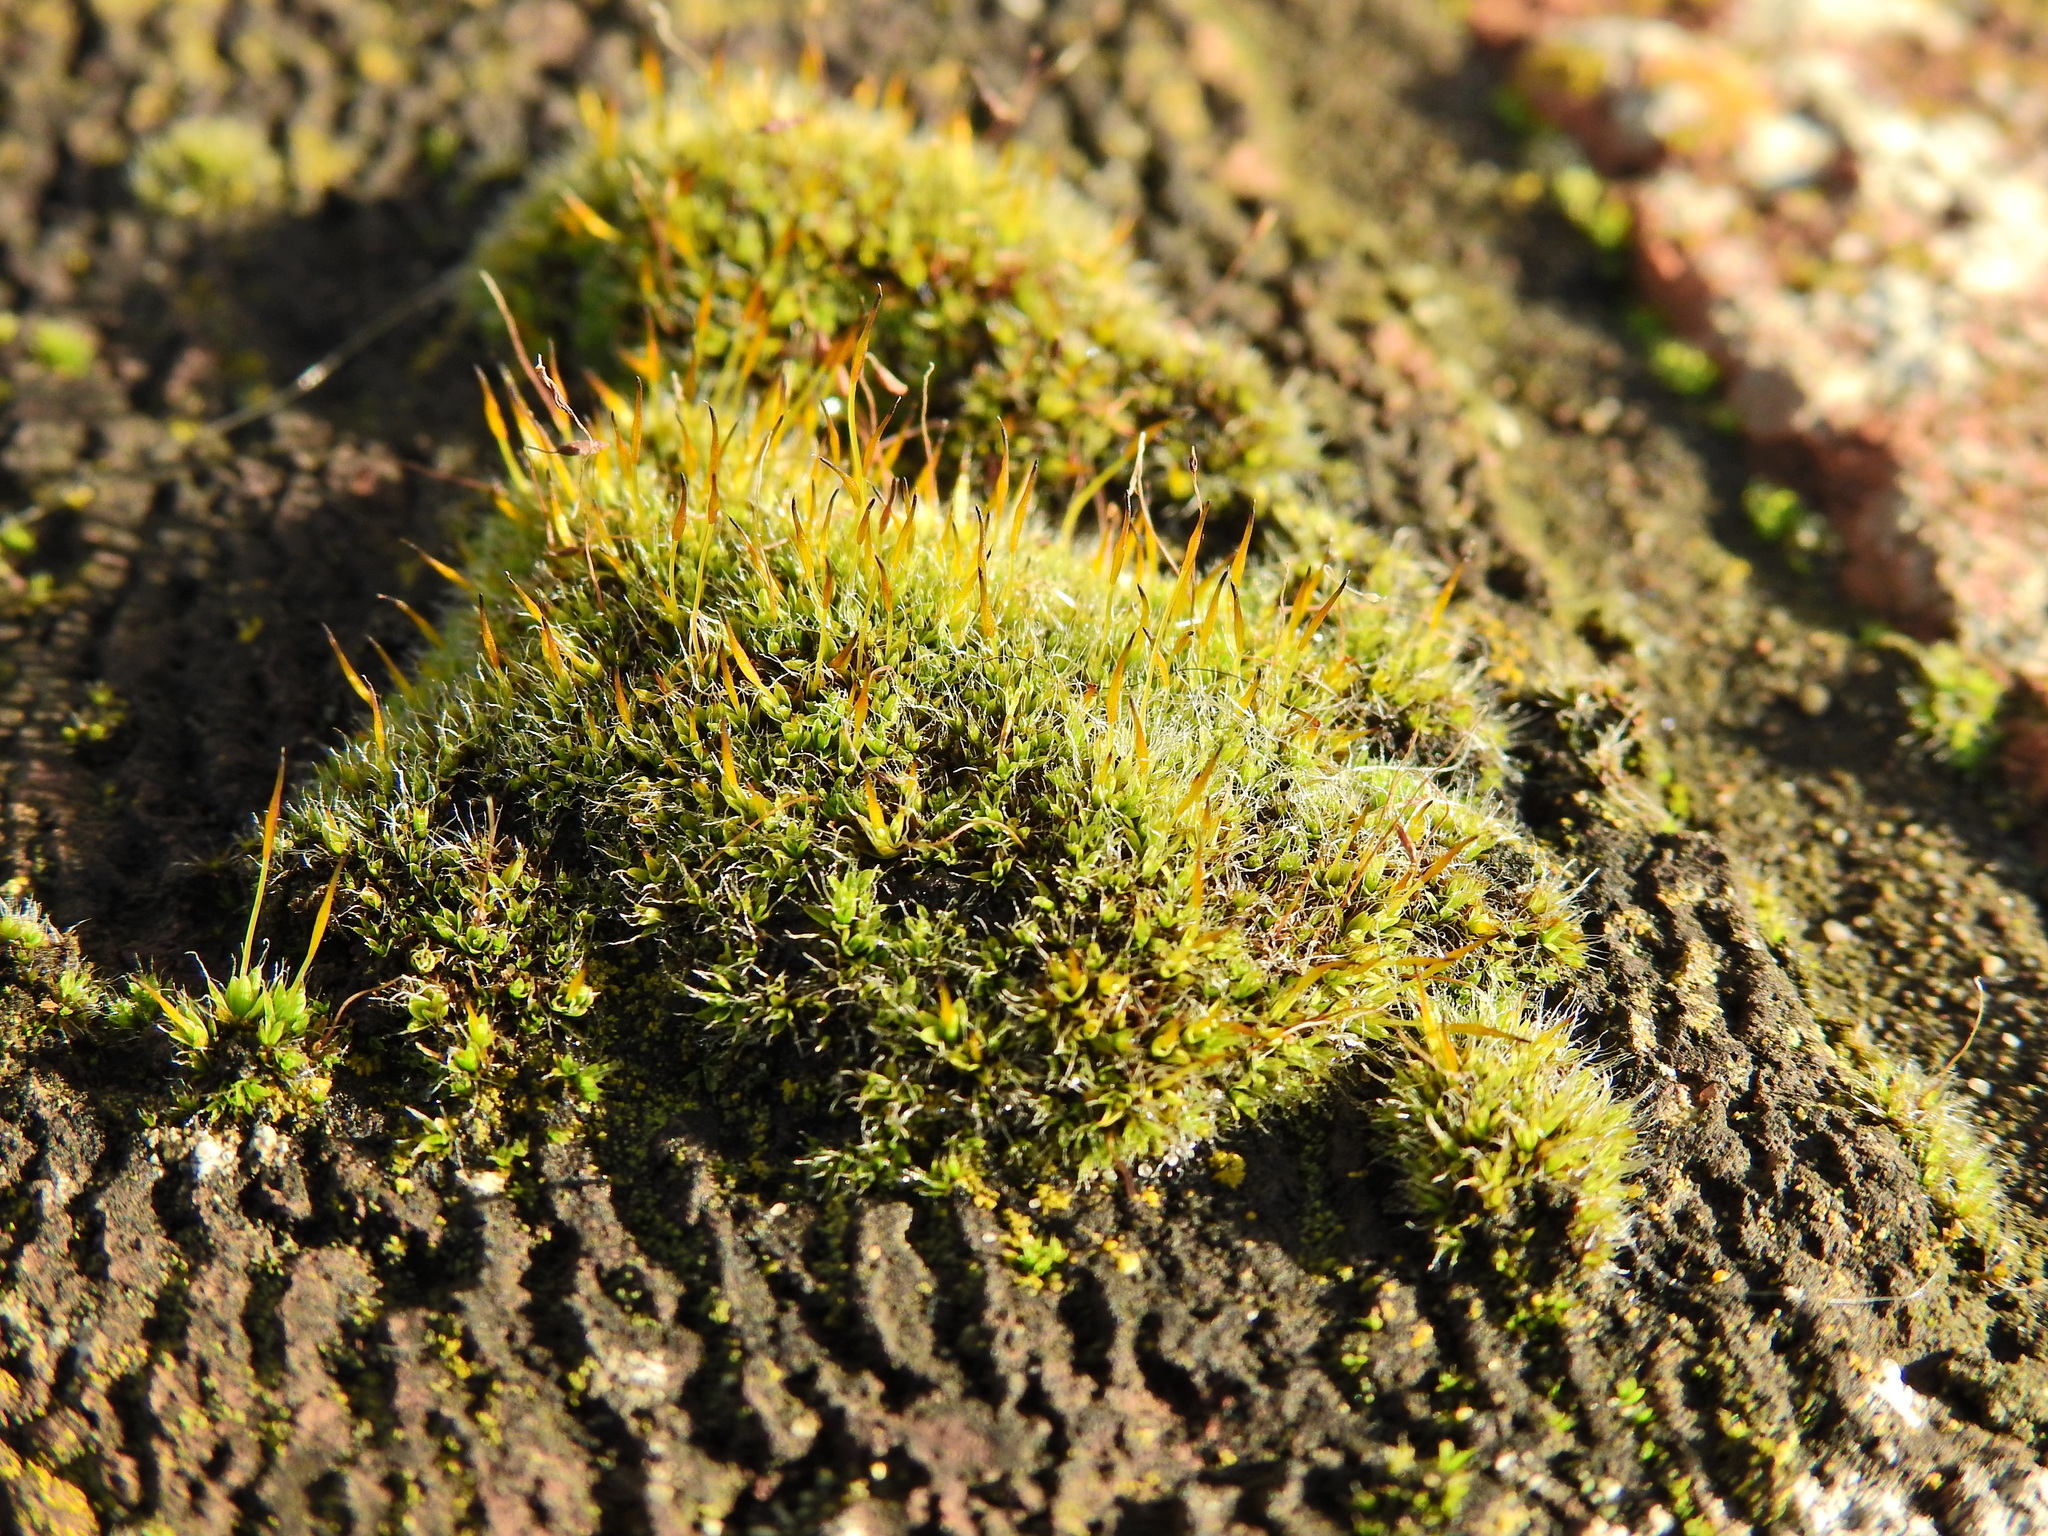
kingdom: Plantae
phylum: Bryophyta
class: Bryopsida
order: Pottiales
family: Pottiaceae
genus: Tortula
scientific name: Tortula muralis
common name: Wall screw-moss
